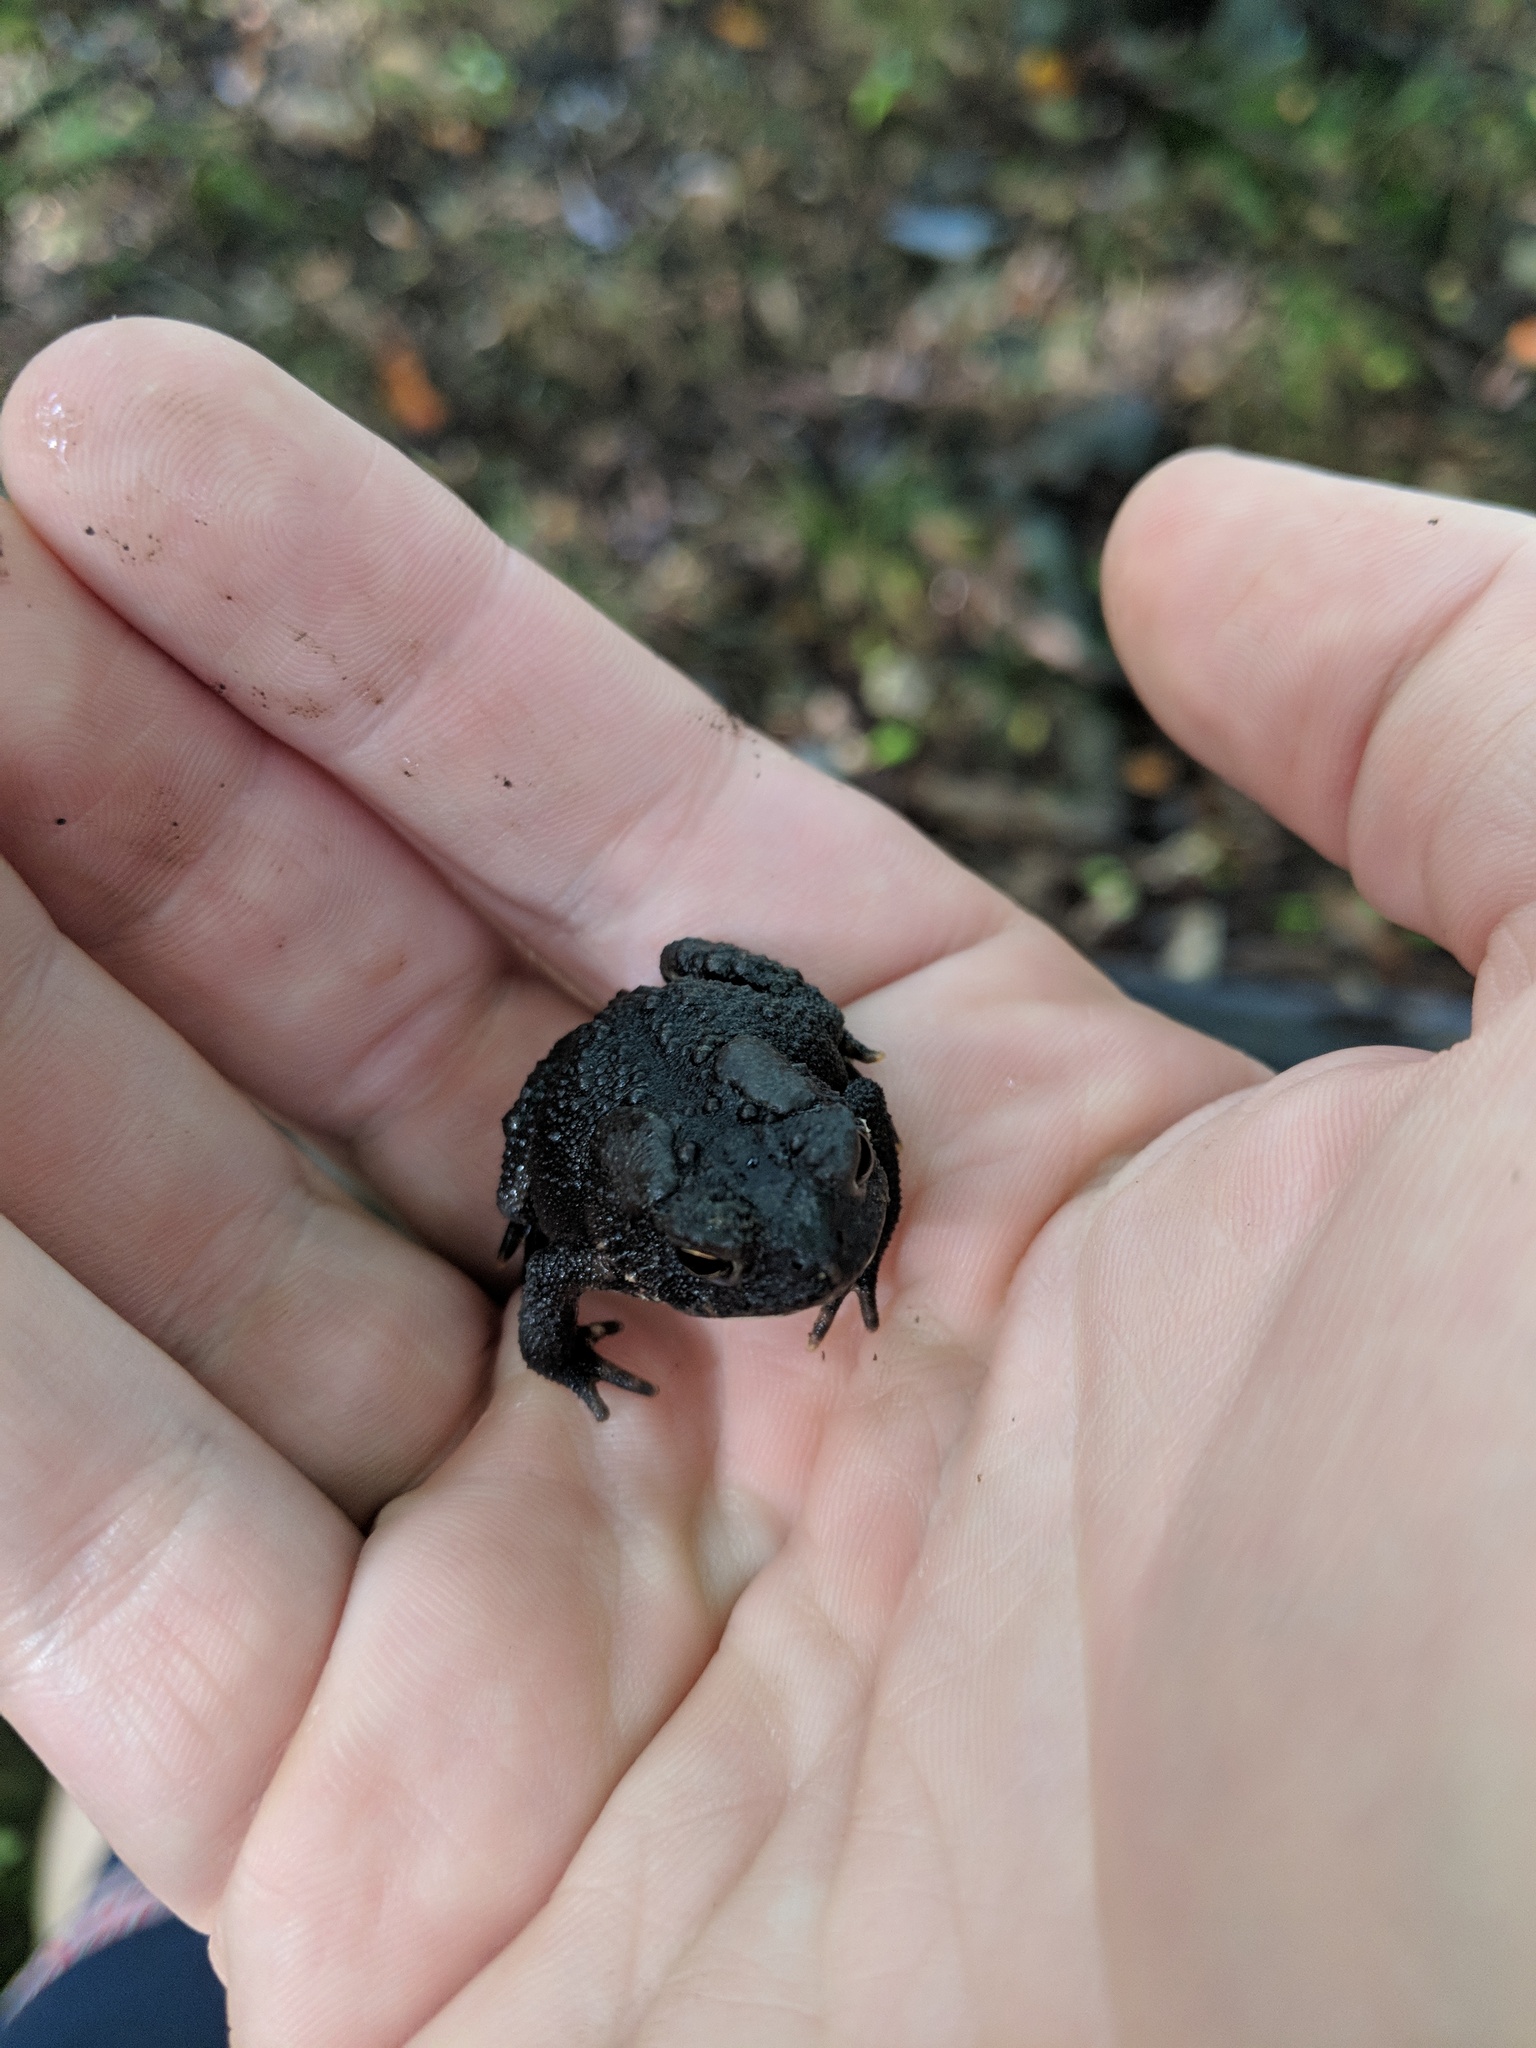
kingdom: Animalia
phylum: Chordata
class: Amphibia
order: Anura
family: Bufonidae
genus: Anaxyrus
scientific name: Anaxyrus americanus
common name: American toad
